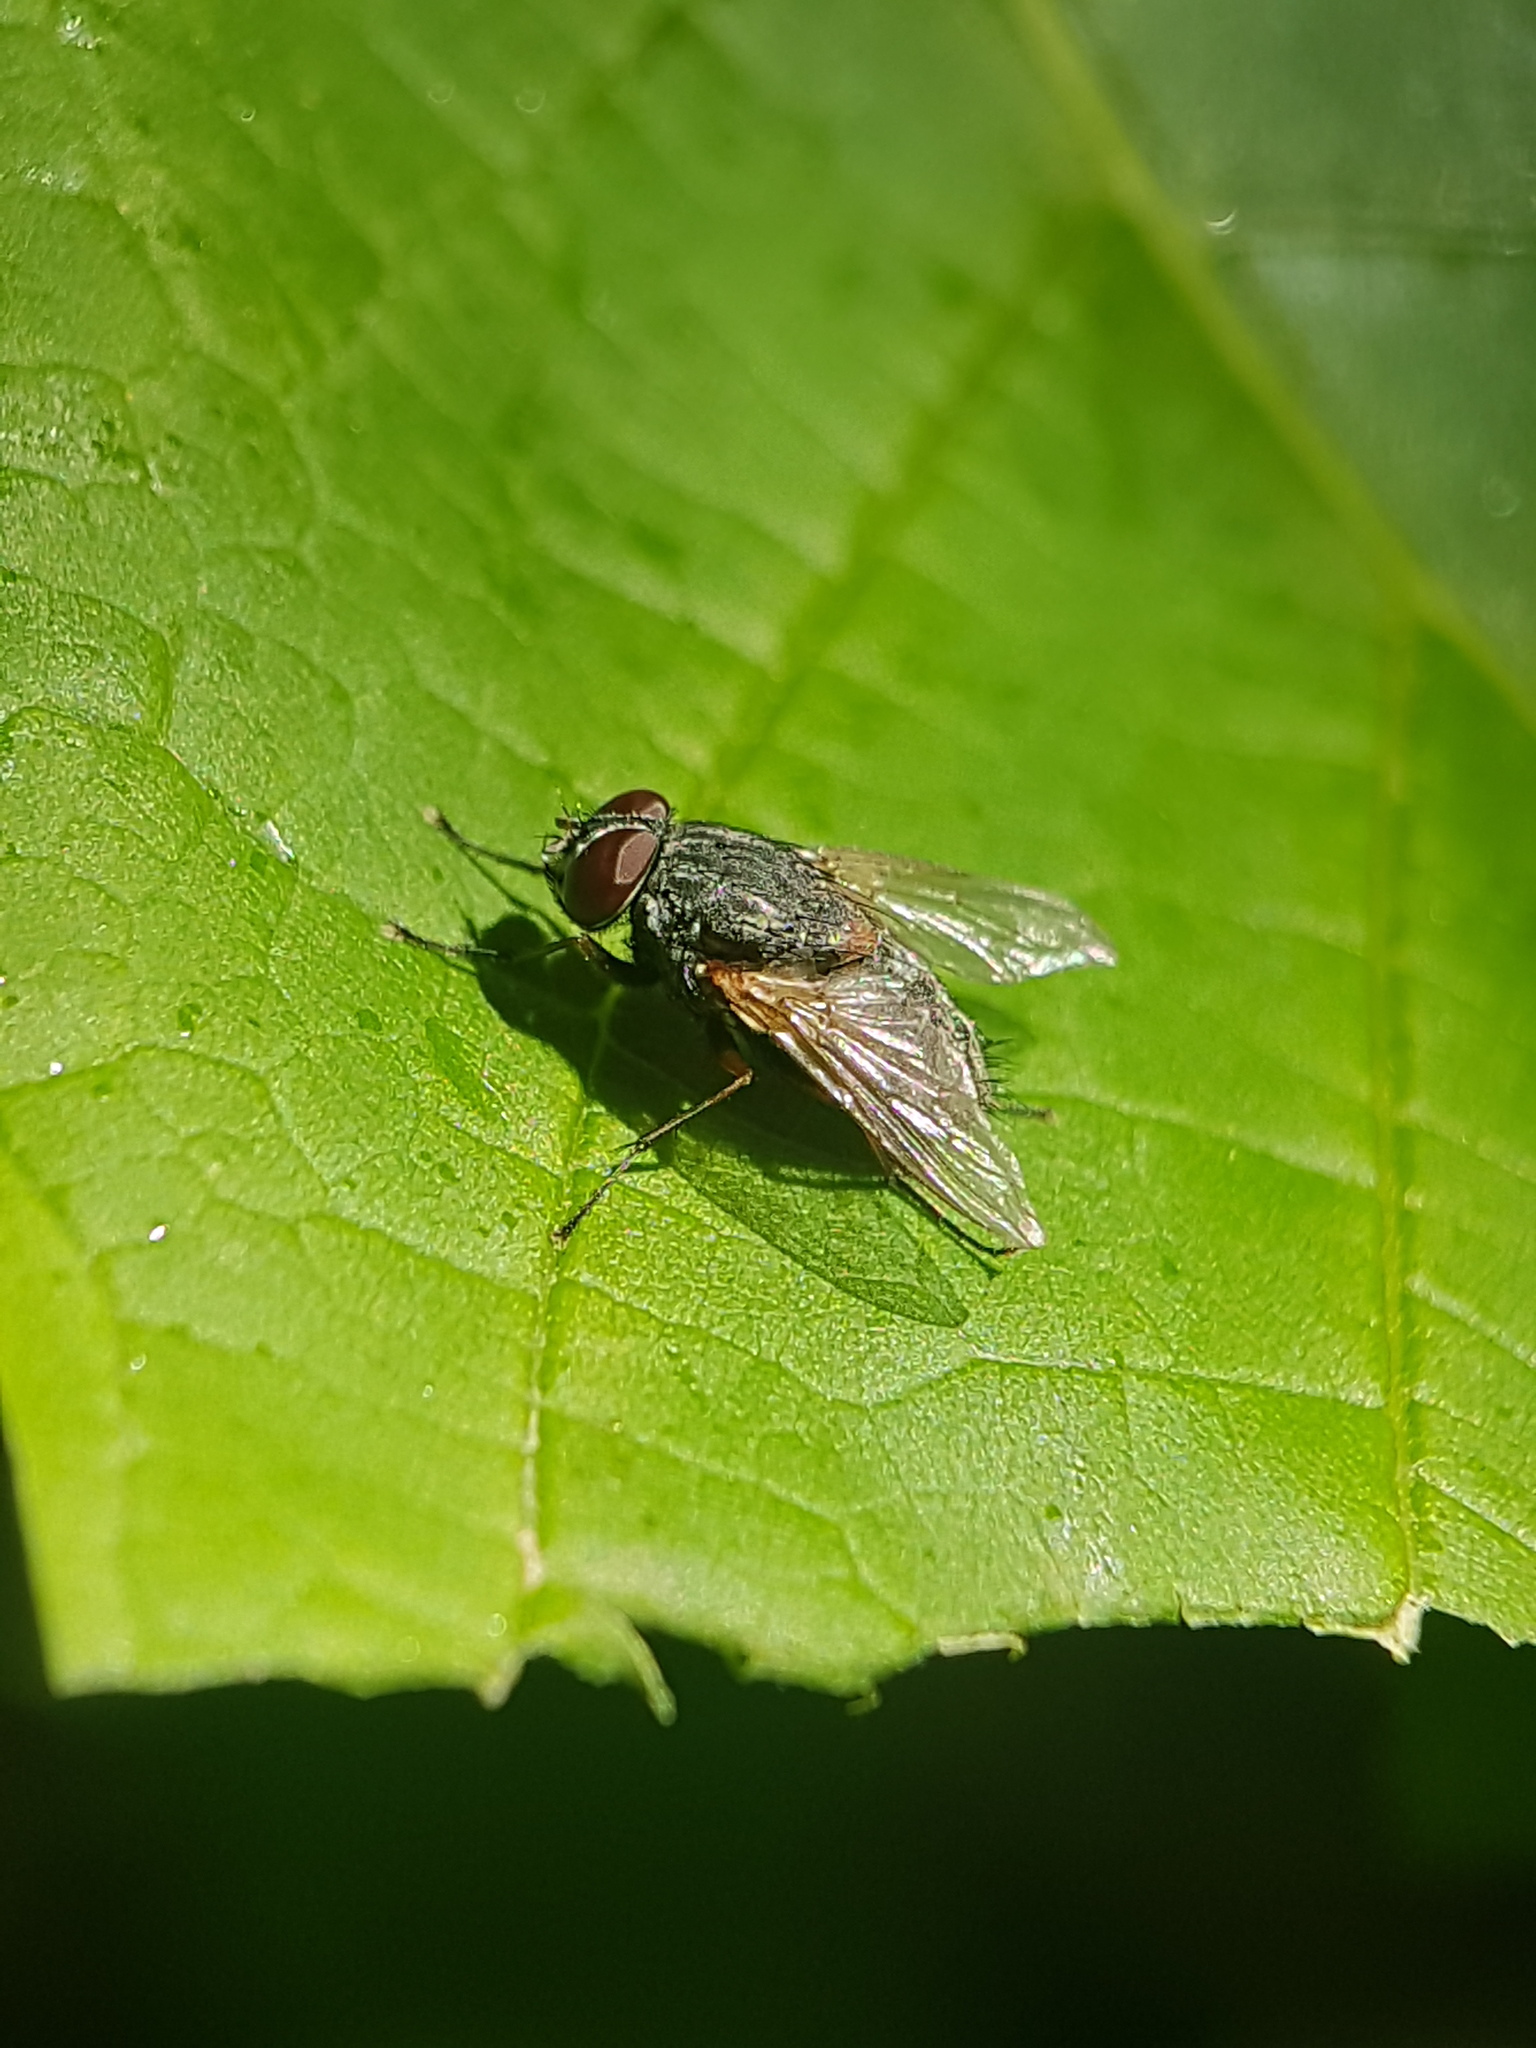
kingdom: Animalia
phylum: Arthropoda
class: Insecta
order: Diptera
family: Muscidae
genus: Muscina
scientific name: Muscina stabulans
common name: False stable fly
